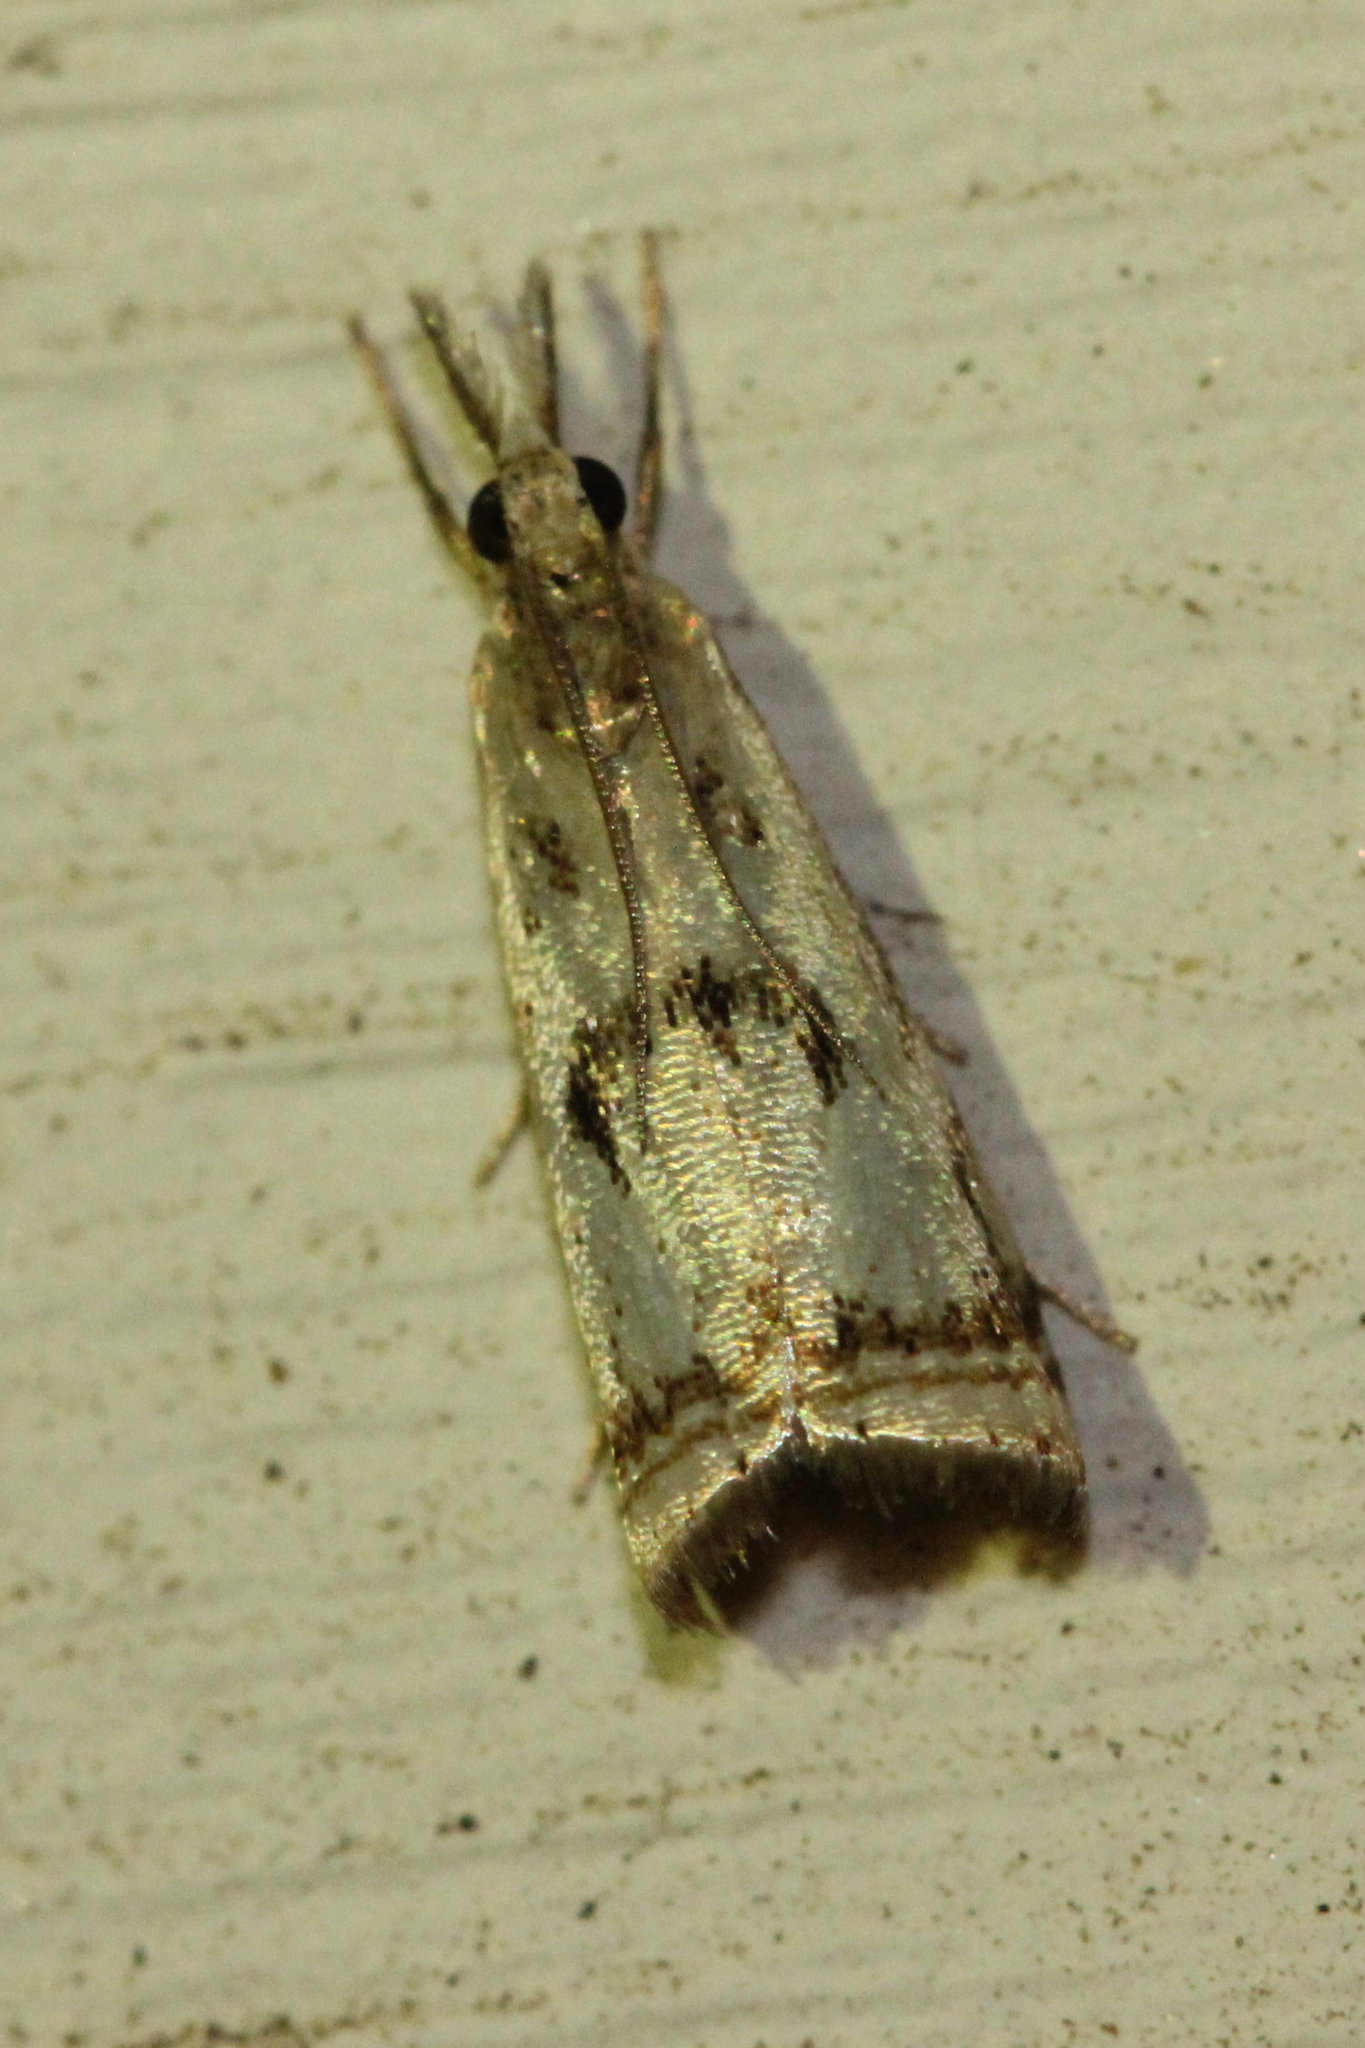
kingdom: Animalia
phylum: Arthropoda
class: Insecta
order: Lepidoptera
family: Crambidae
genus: Microcrambus
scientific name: Microcrambus elegans
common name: Elegant grass-veneer
